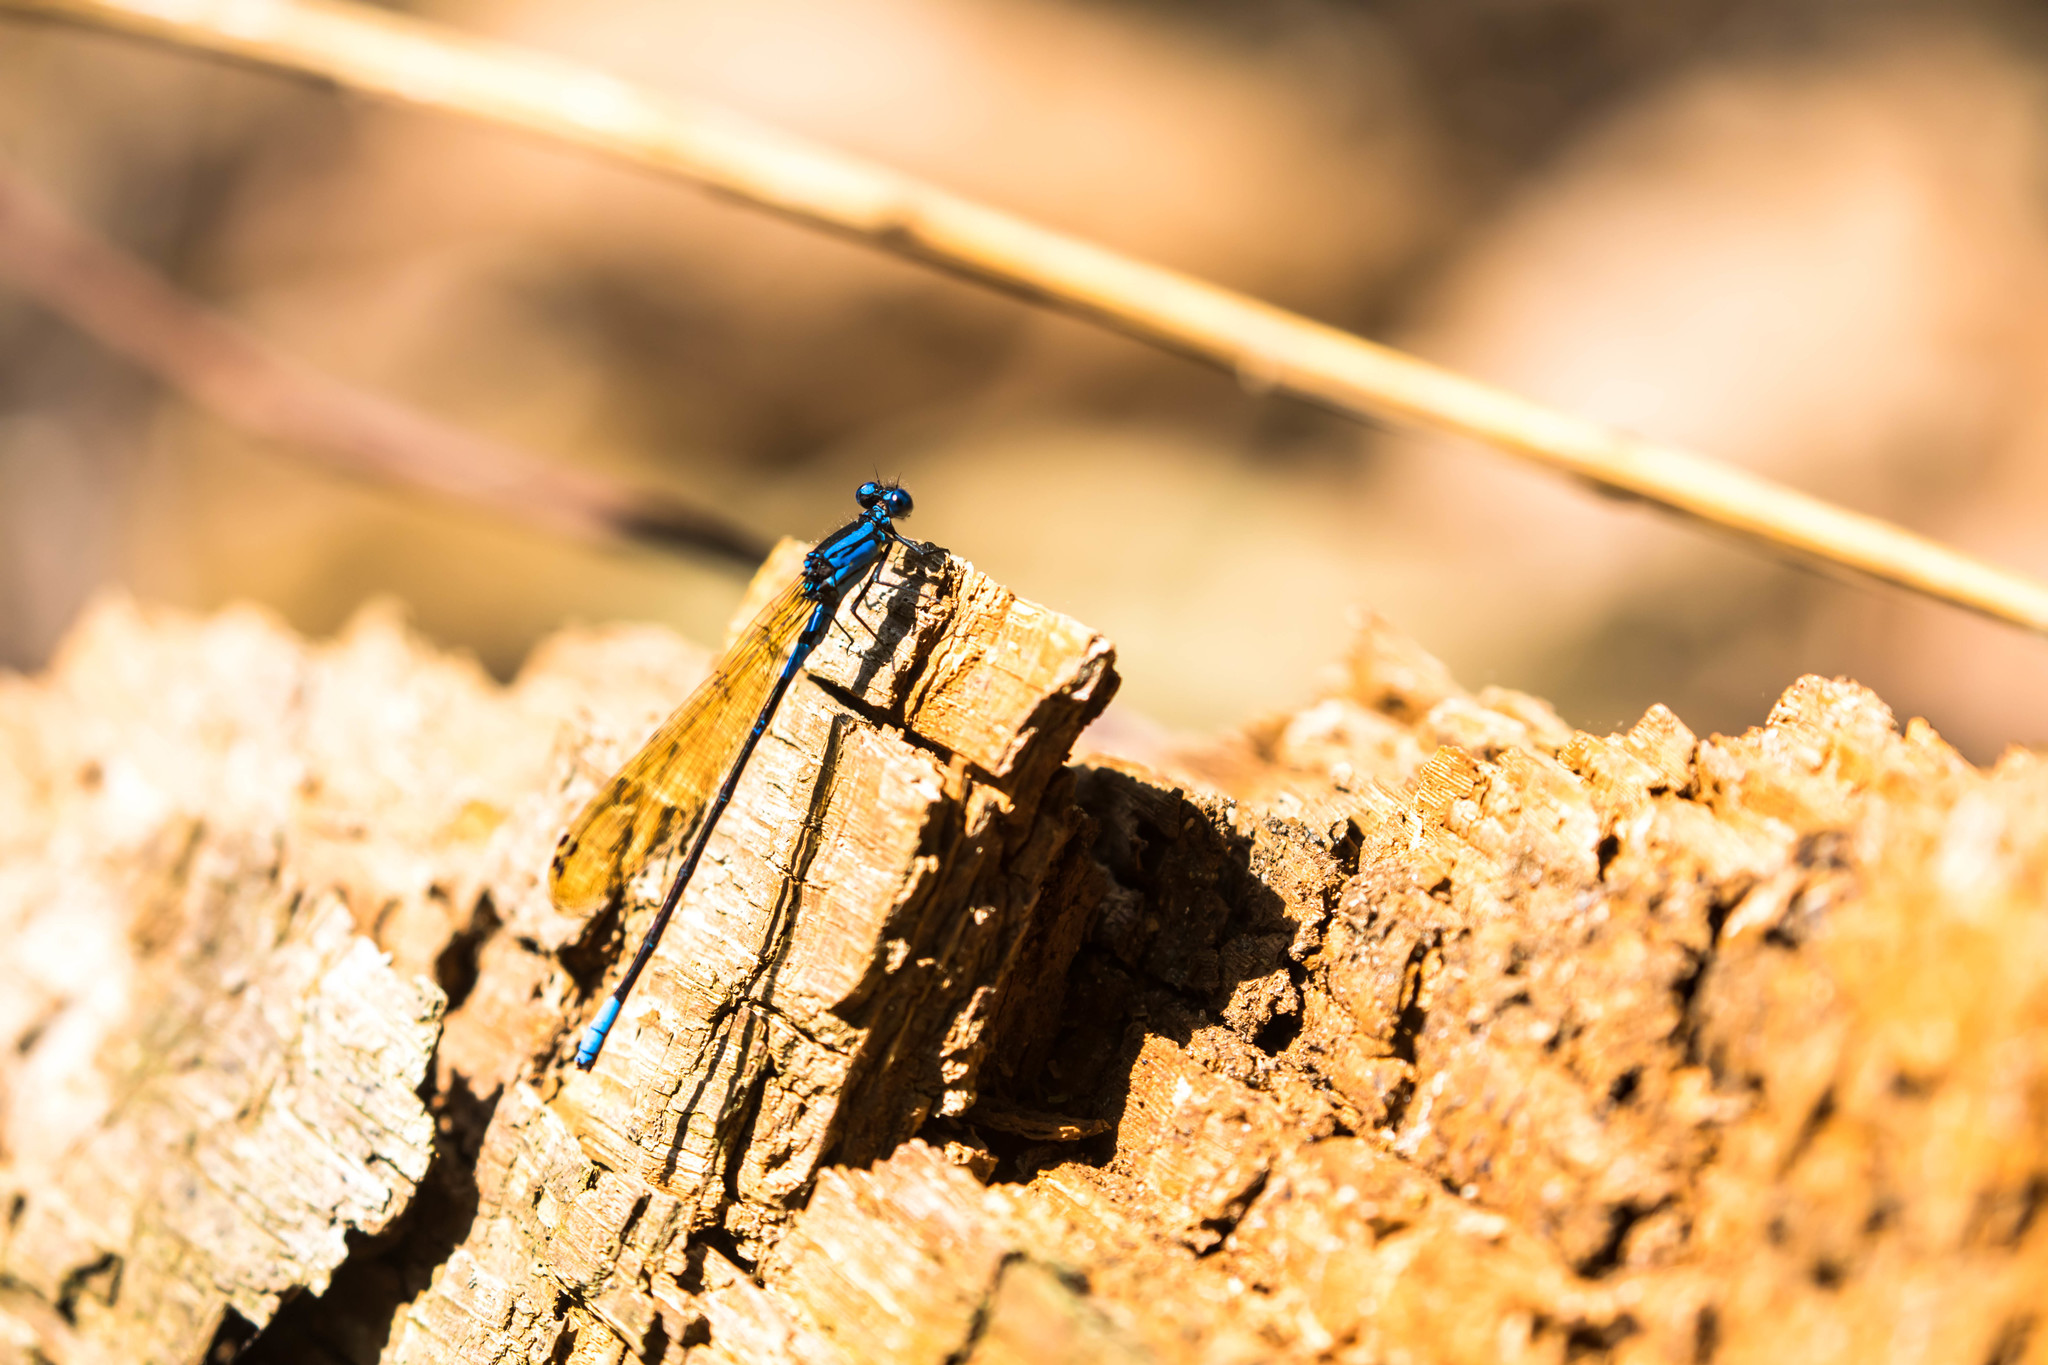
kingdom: Animalia
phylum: Arthropoda
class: Insecta
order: Odonata
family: Coenagrionidae
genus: Argia
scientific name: Argia terira
